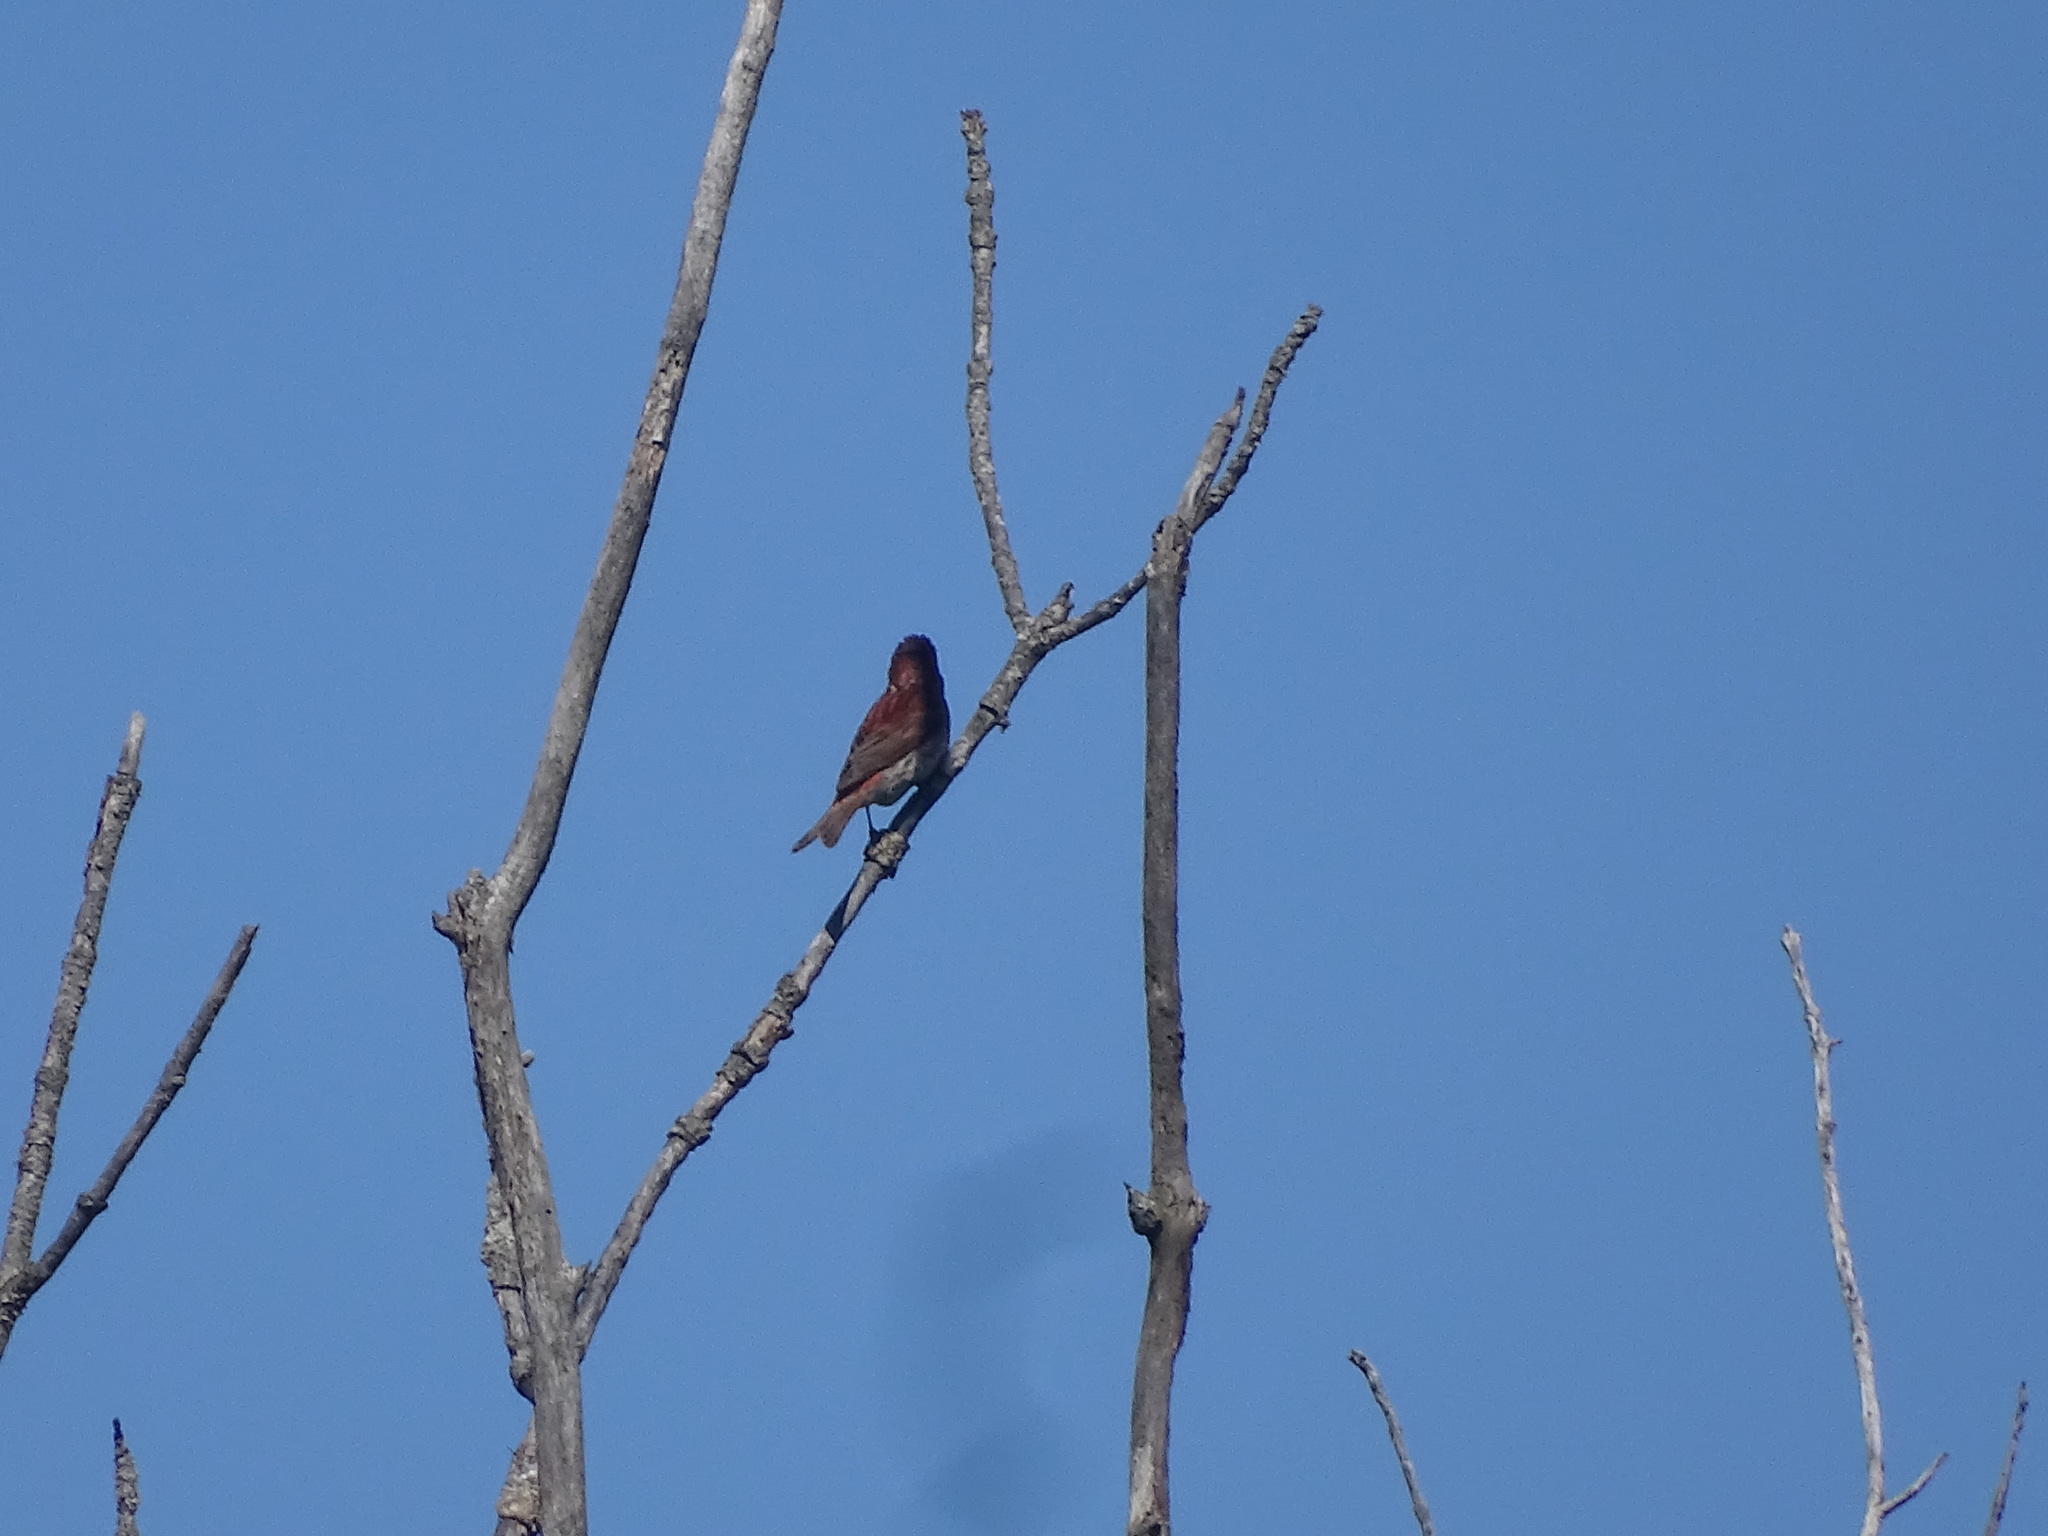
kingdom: Animalia
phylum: Chordata
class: Aves
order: Passeriformes
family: Fringillidae
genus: Haemorhous
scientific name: Haemorhous purpureus
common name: Purple finch
